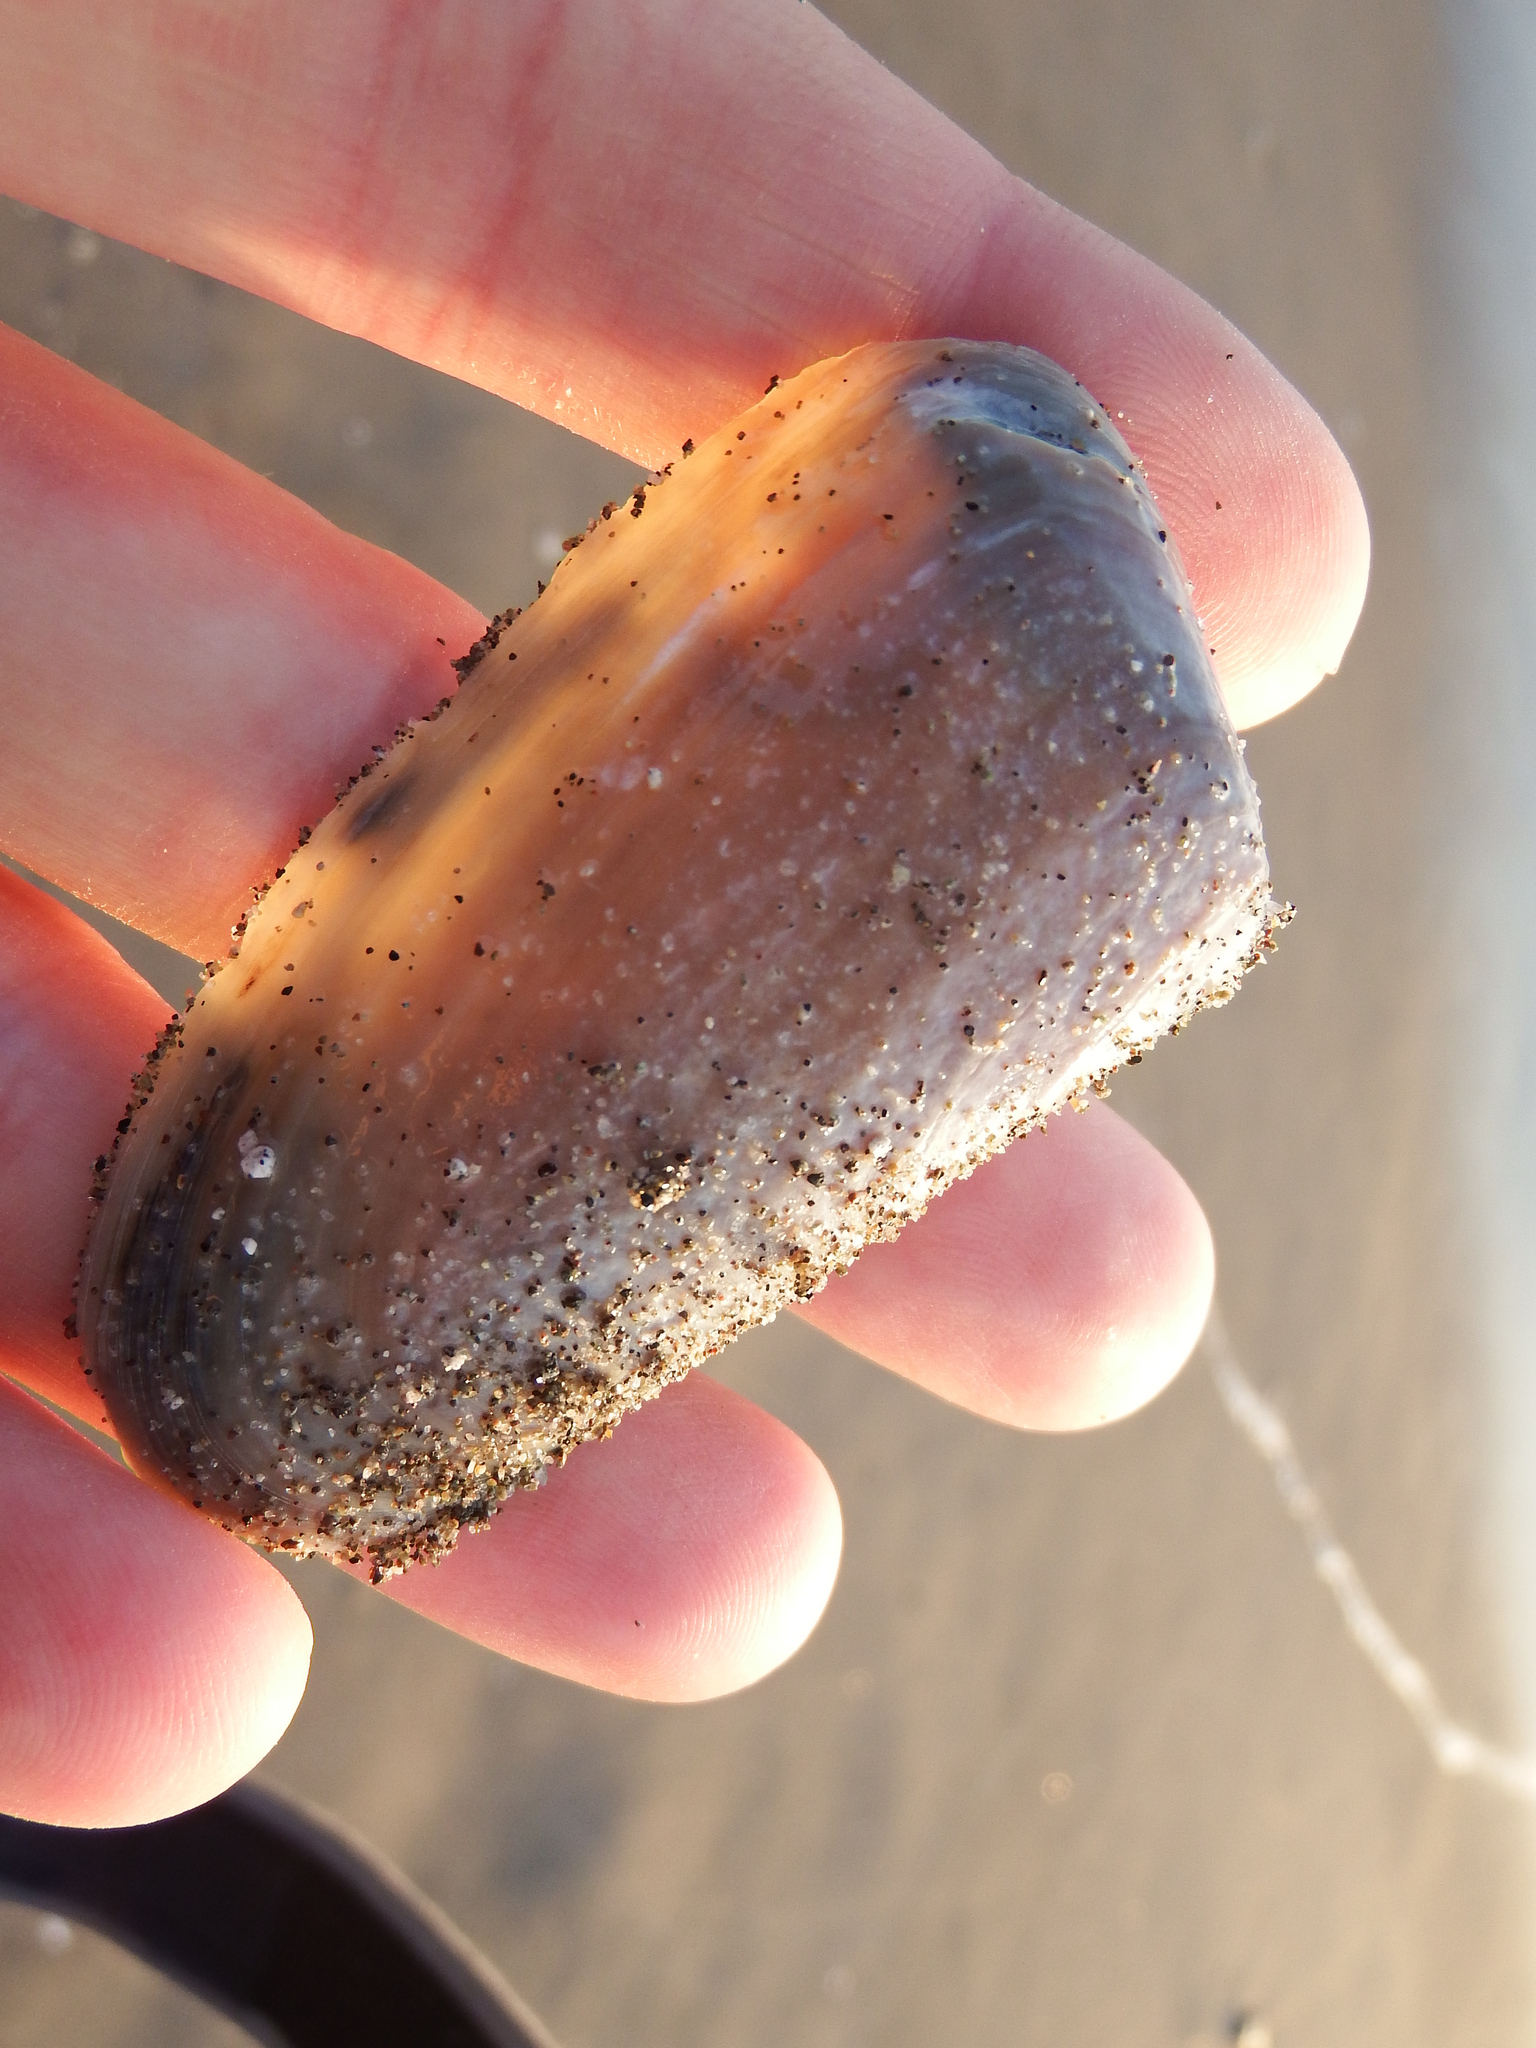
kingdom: Animalia
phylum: Mollusca
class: Bivalvia
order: Venerida
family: Mesodesmatidae
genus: Mesodesma
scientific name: Mesodesma donacium
